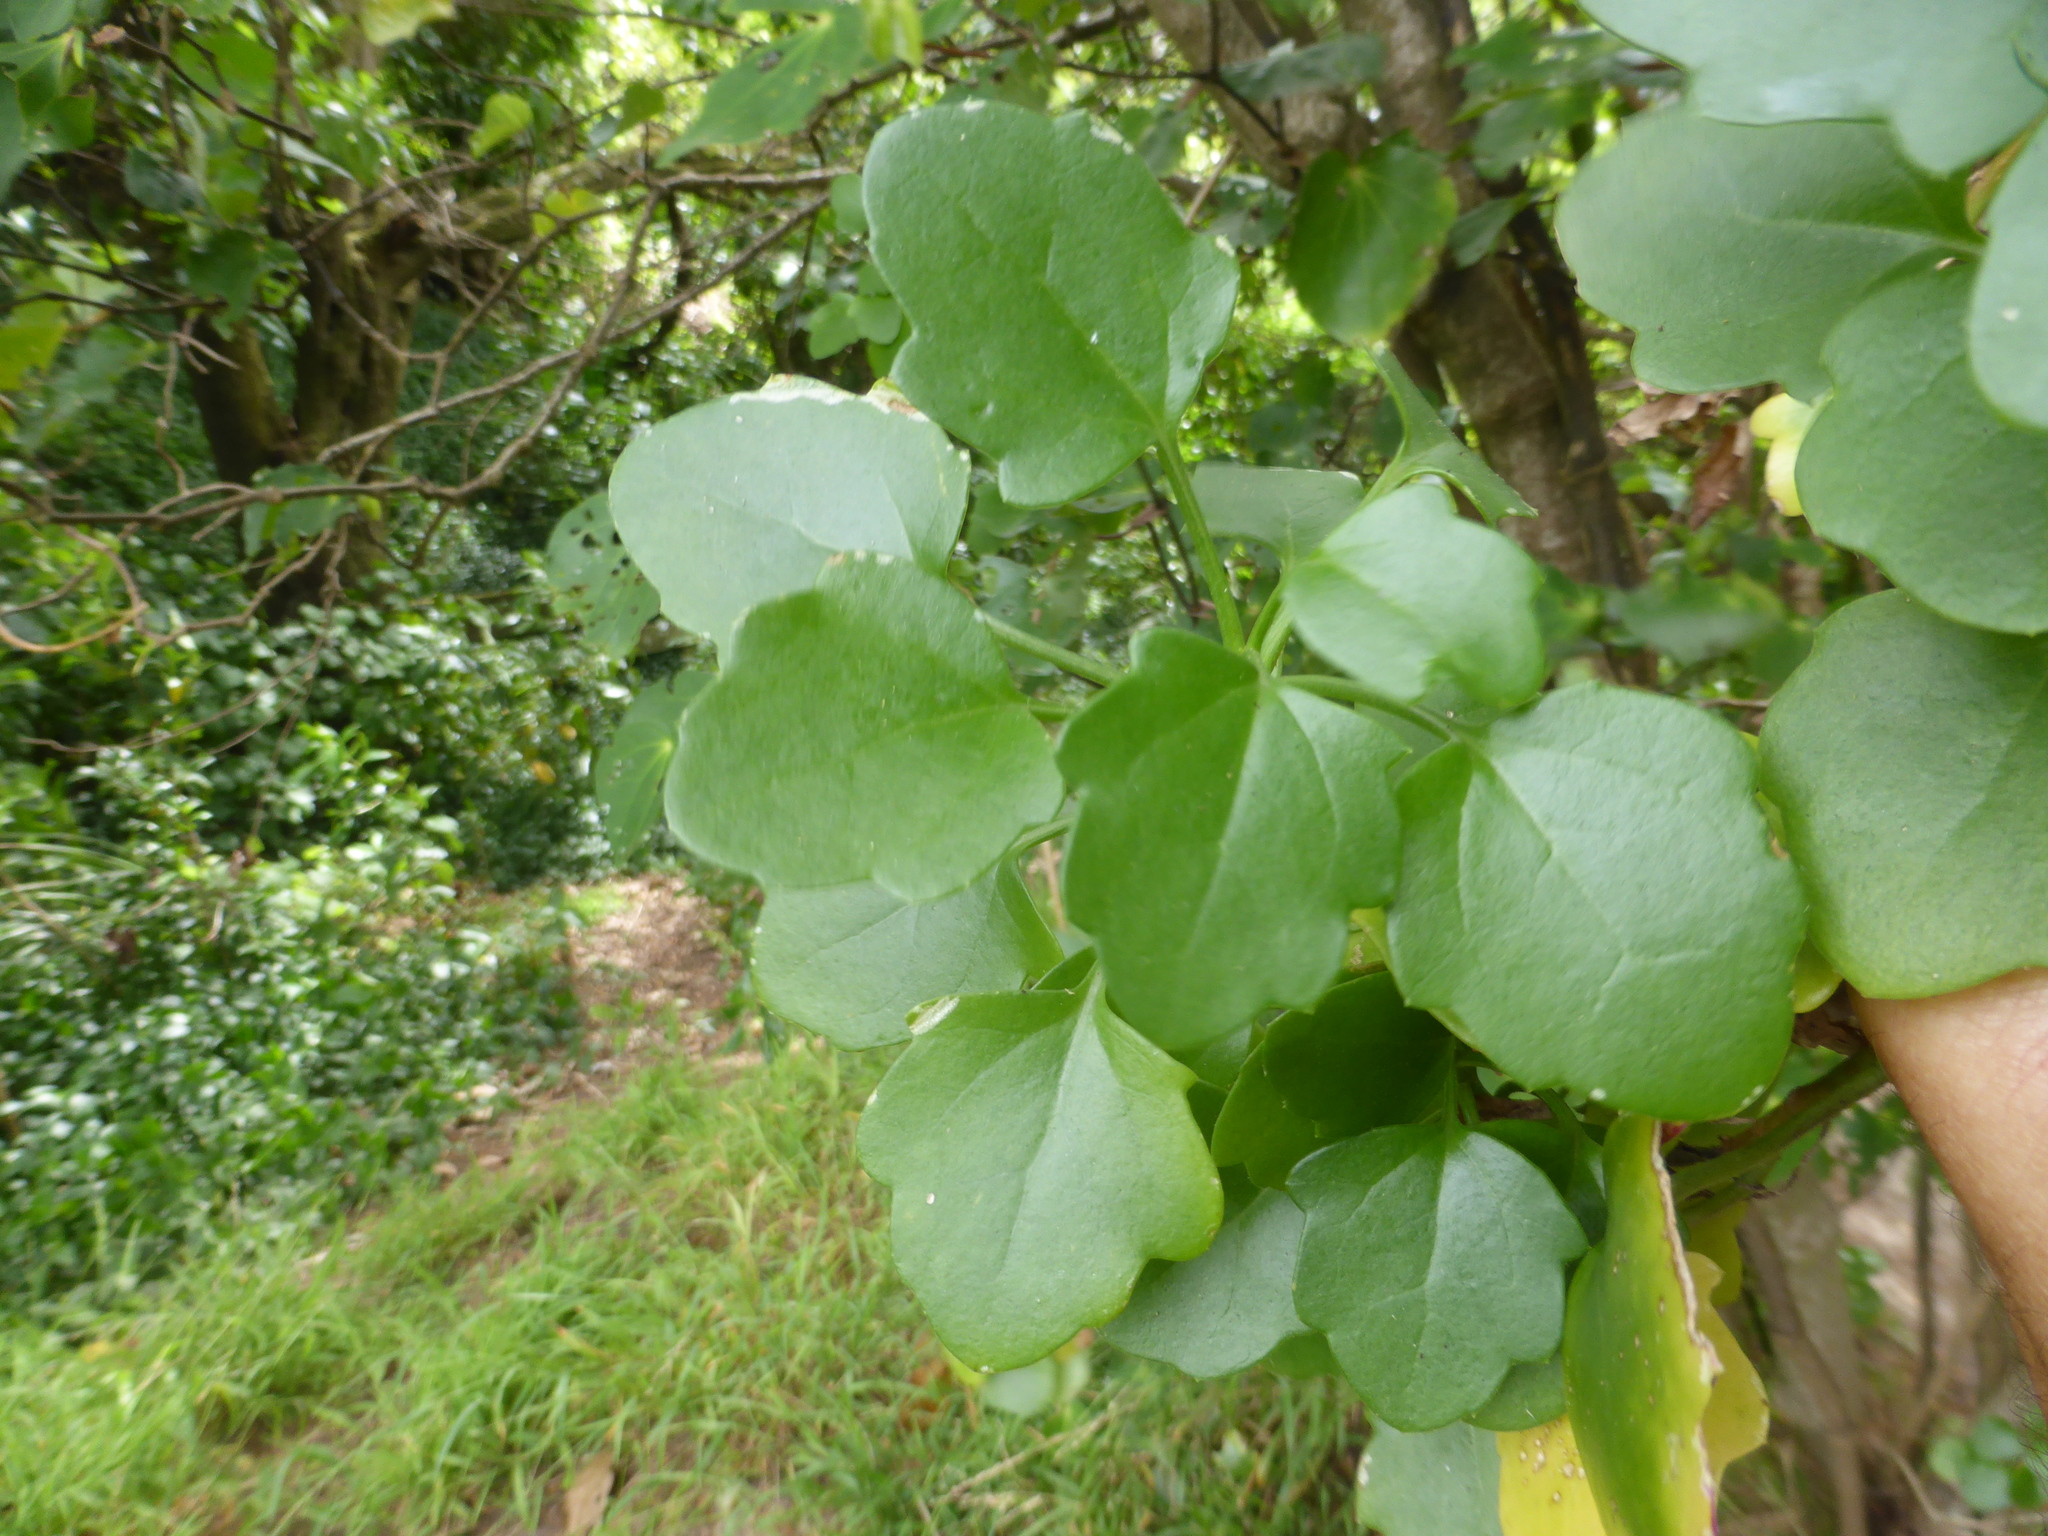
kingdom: Plantae
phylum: Tracheophyta
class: Magnoliopsida
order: Asterales
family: Asteraceae
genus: Senecio
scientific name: Senecio angulatus
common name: Climbing groundsel
